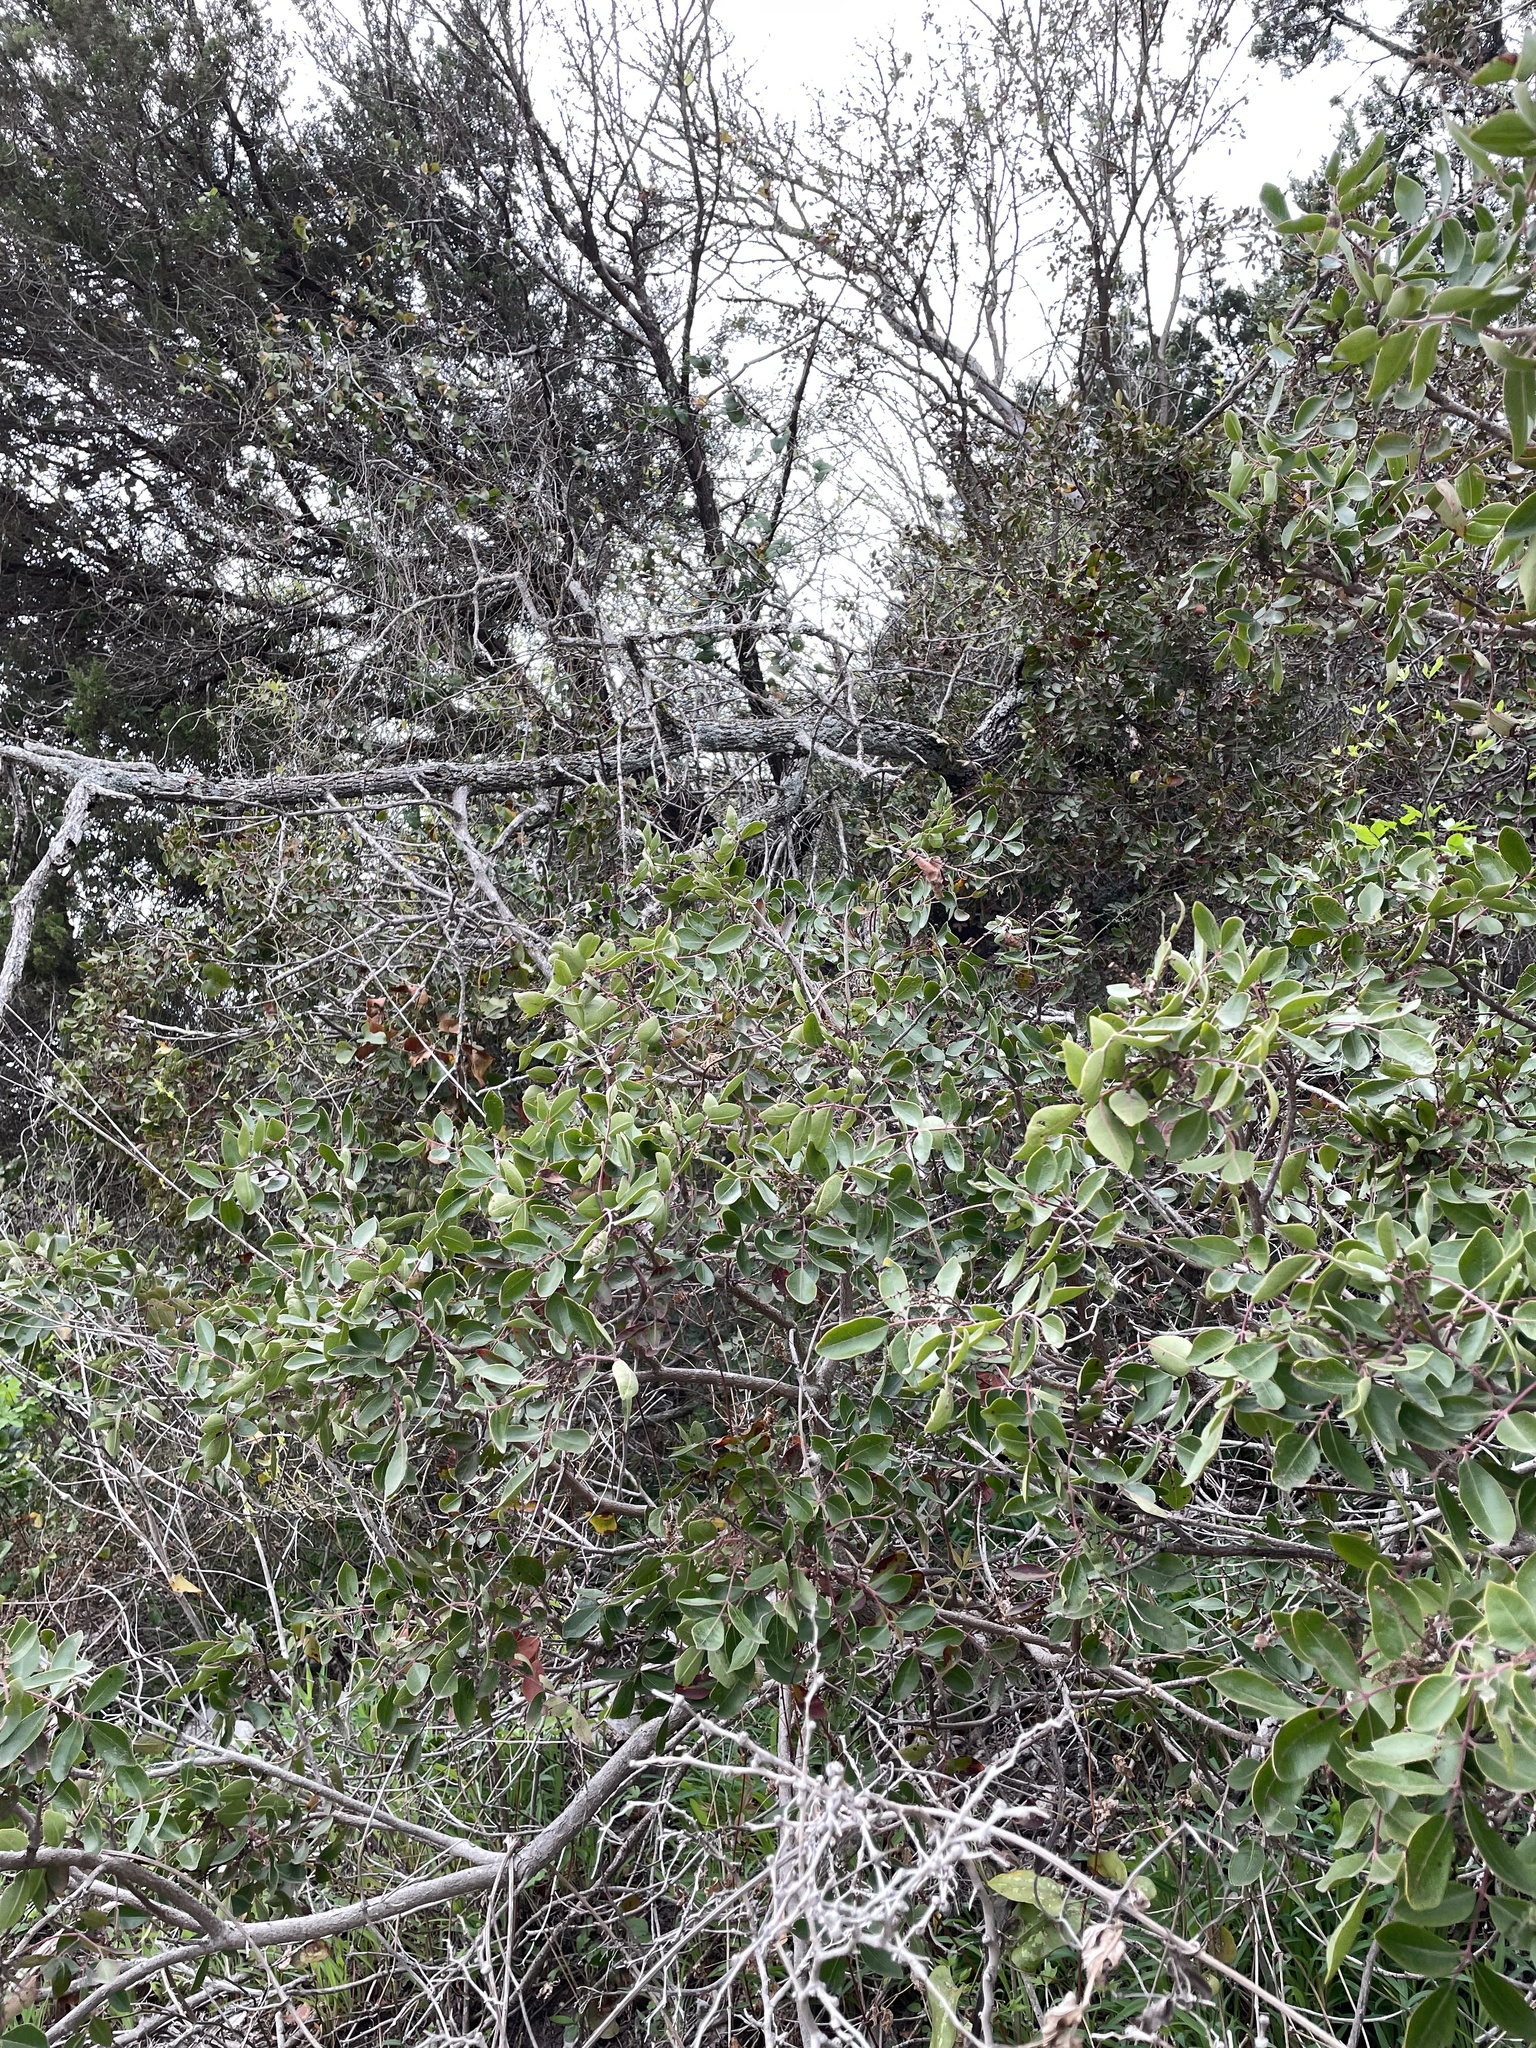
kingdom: Plantae
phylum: Tracheophyta
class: Magnoliopsida
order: Sapindales
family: Anacardiaceae
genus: Rhus
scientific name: Rhus virens
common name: Evergreen sumac
